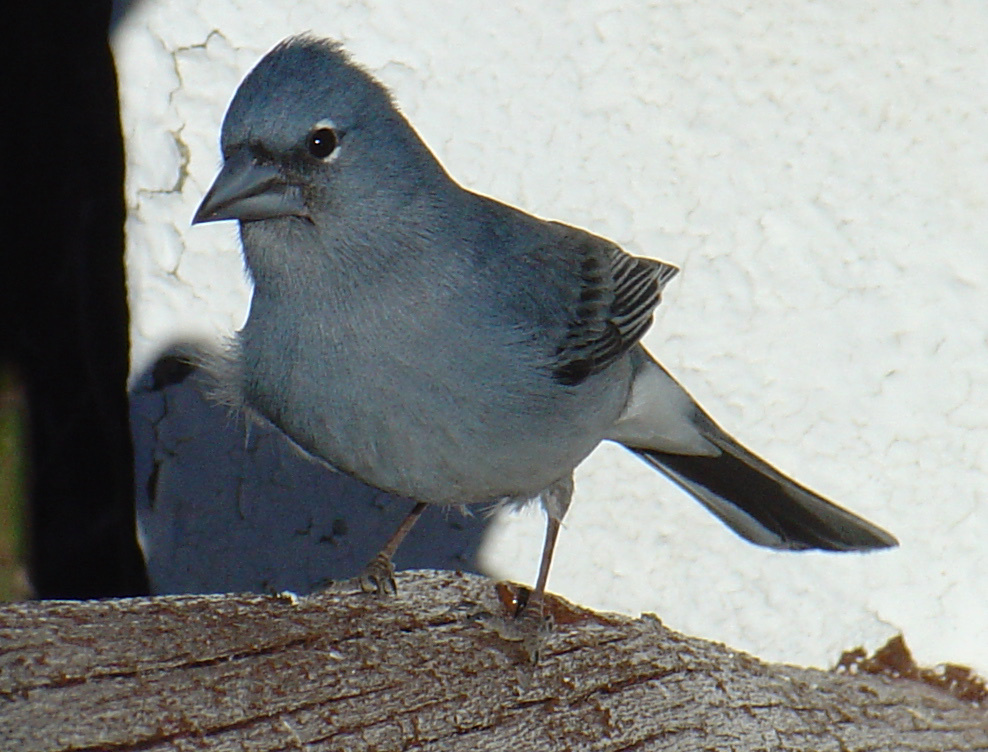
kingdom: Animalia
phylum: Chordata
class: Aves
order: Passeriformes
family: Fringillidae
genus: Fringilla
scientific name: Fringilla teydea
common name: Blue chaffinch
